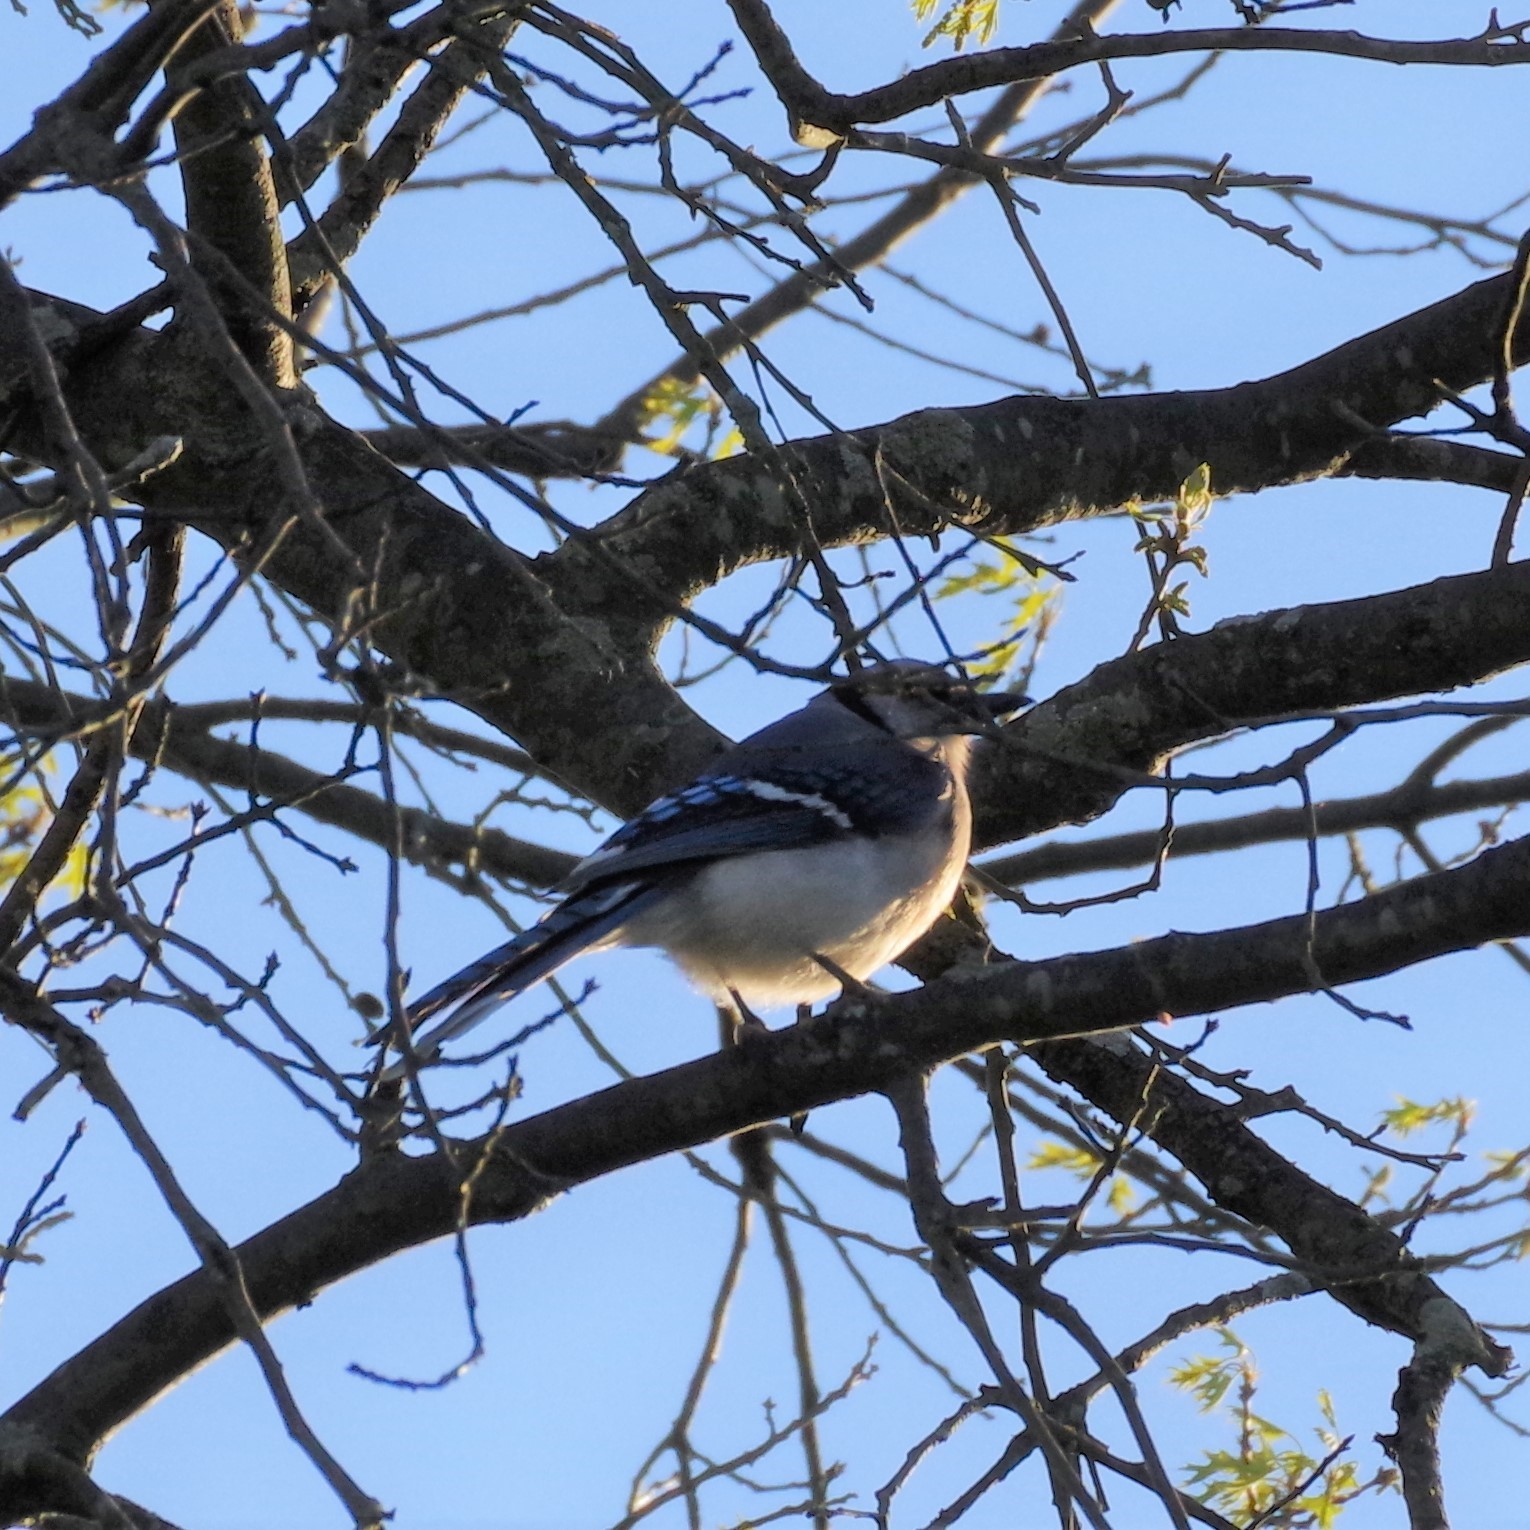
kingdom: Animalia
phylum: Chordata
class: Aves
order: Passeriformes
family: Corvidae
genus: Cyanocitta
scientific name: Cyanocitta cristata
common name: Blue jay
